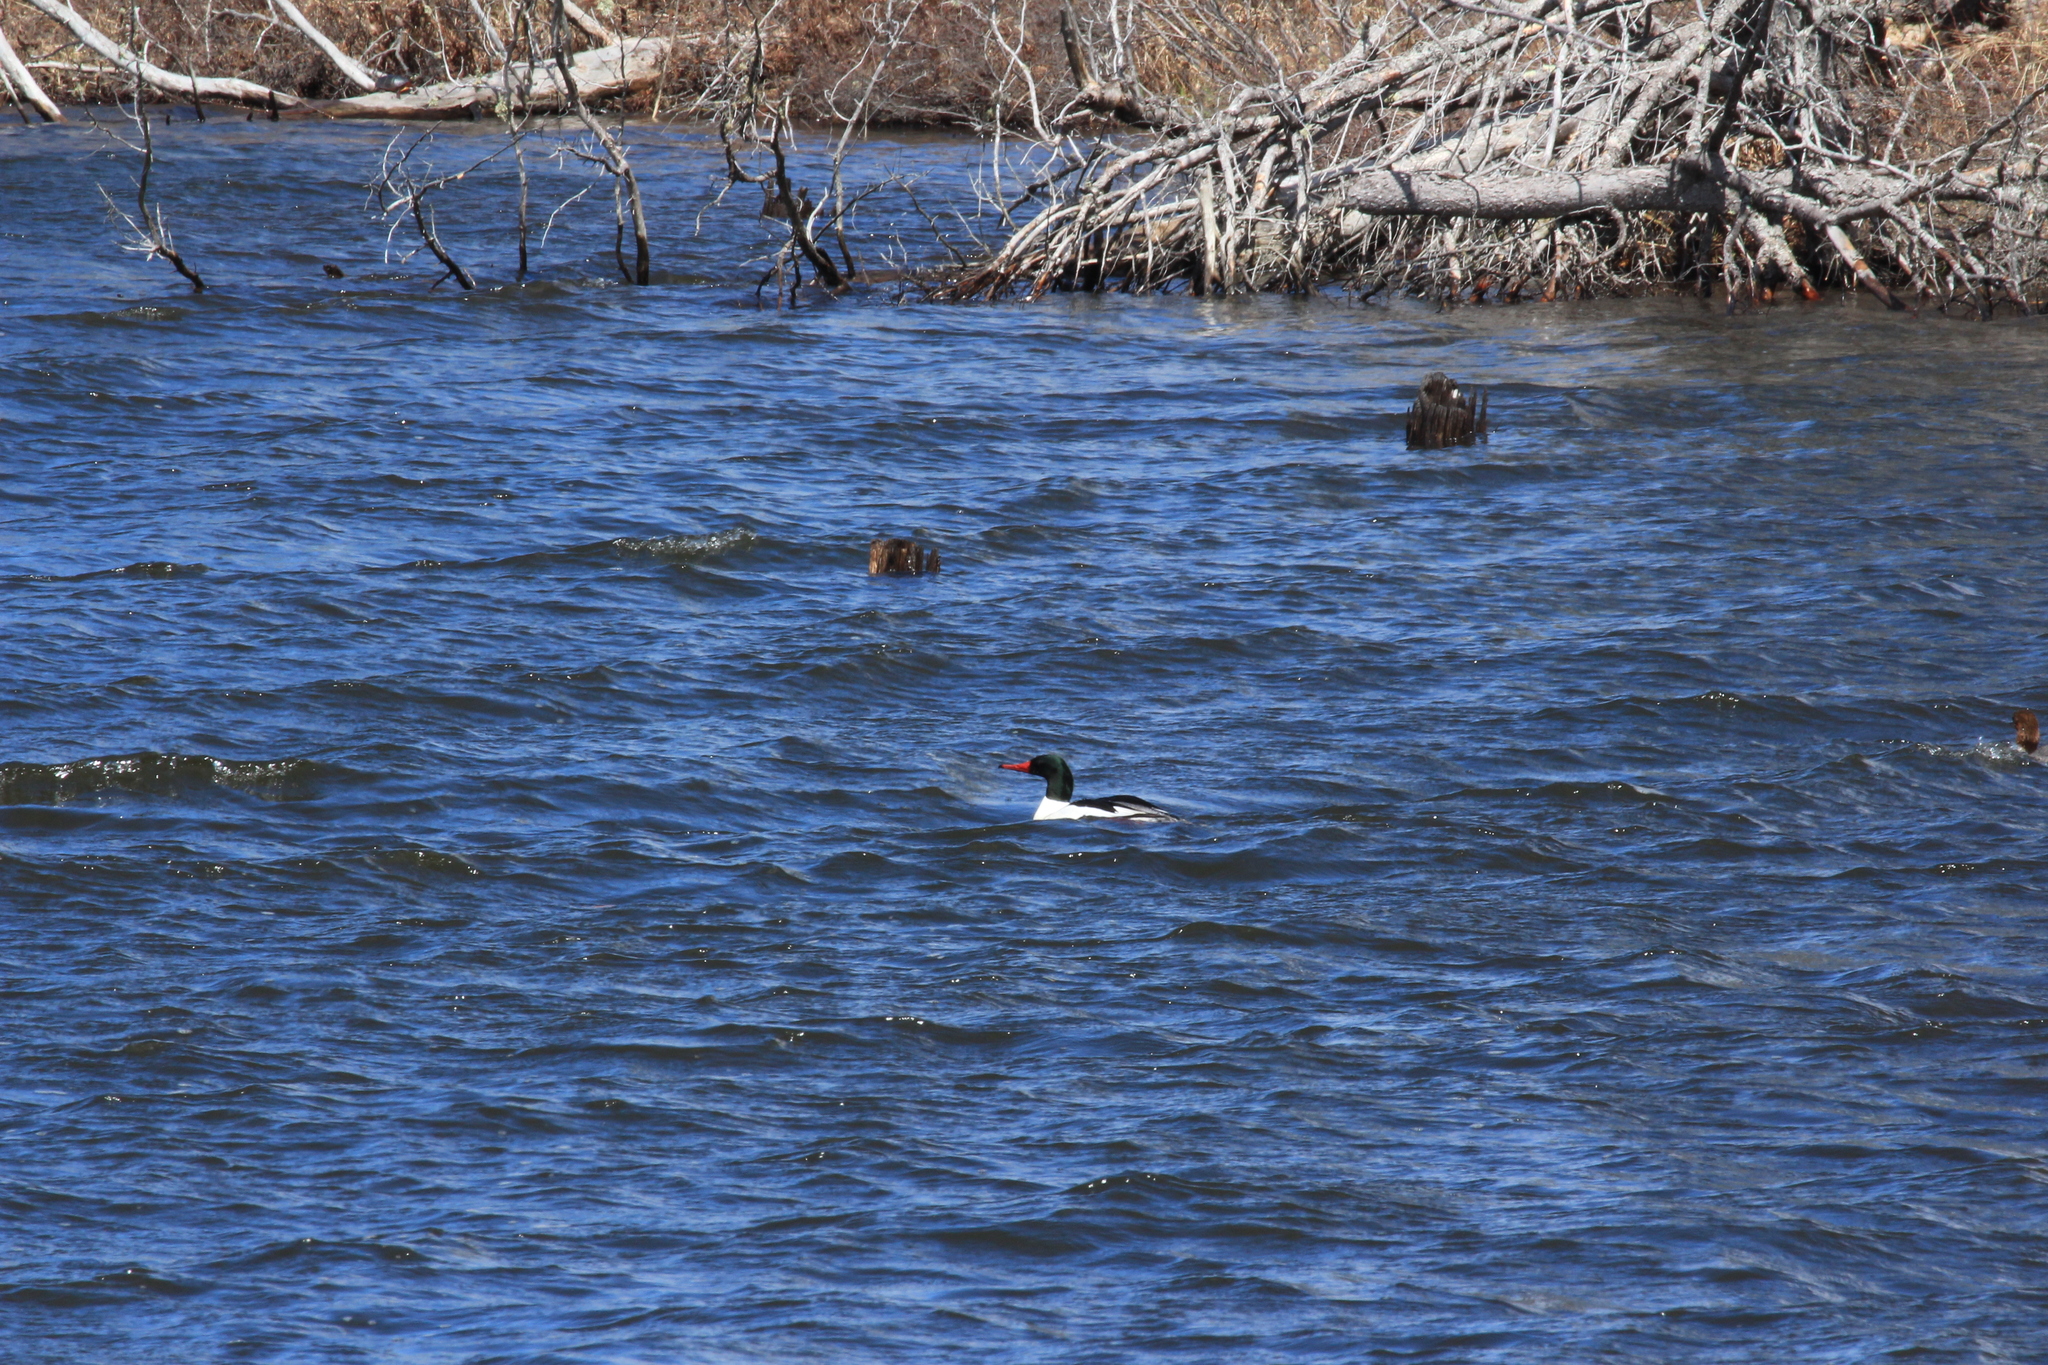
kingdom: Animalia
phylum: Chordata
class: Aves
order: Anseriformes
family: Anatidae
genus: Mergus
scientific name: Mergus merganser
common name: Common merganser
